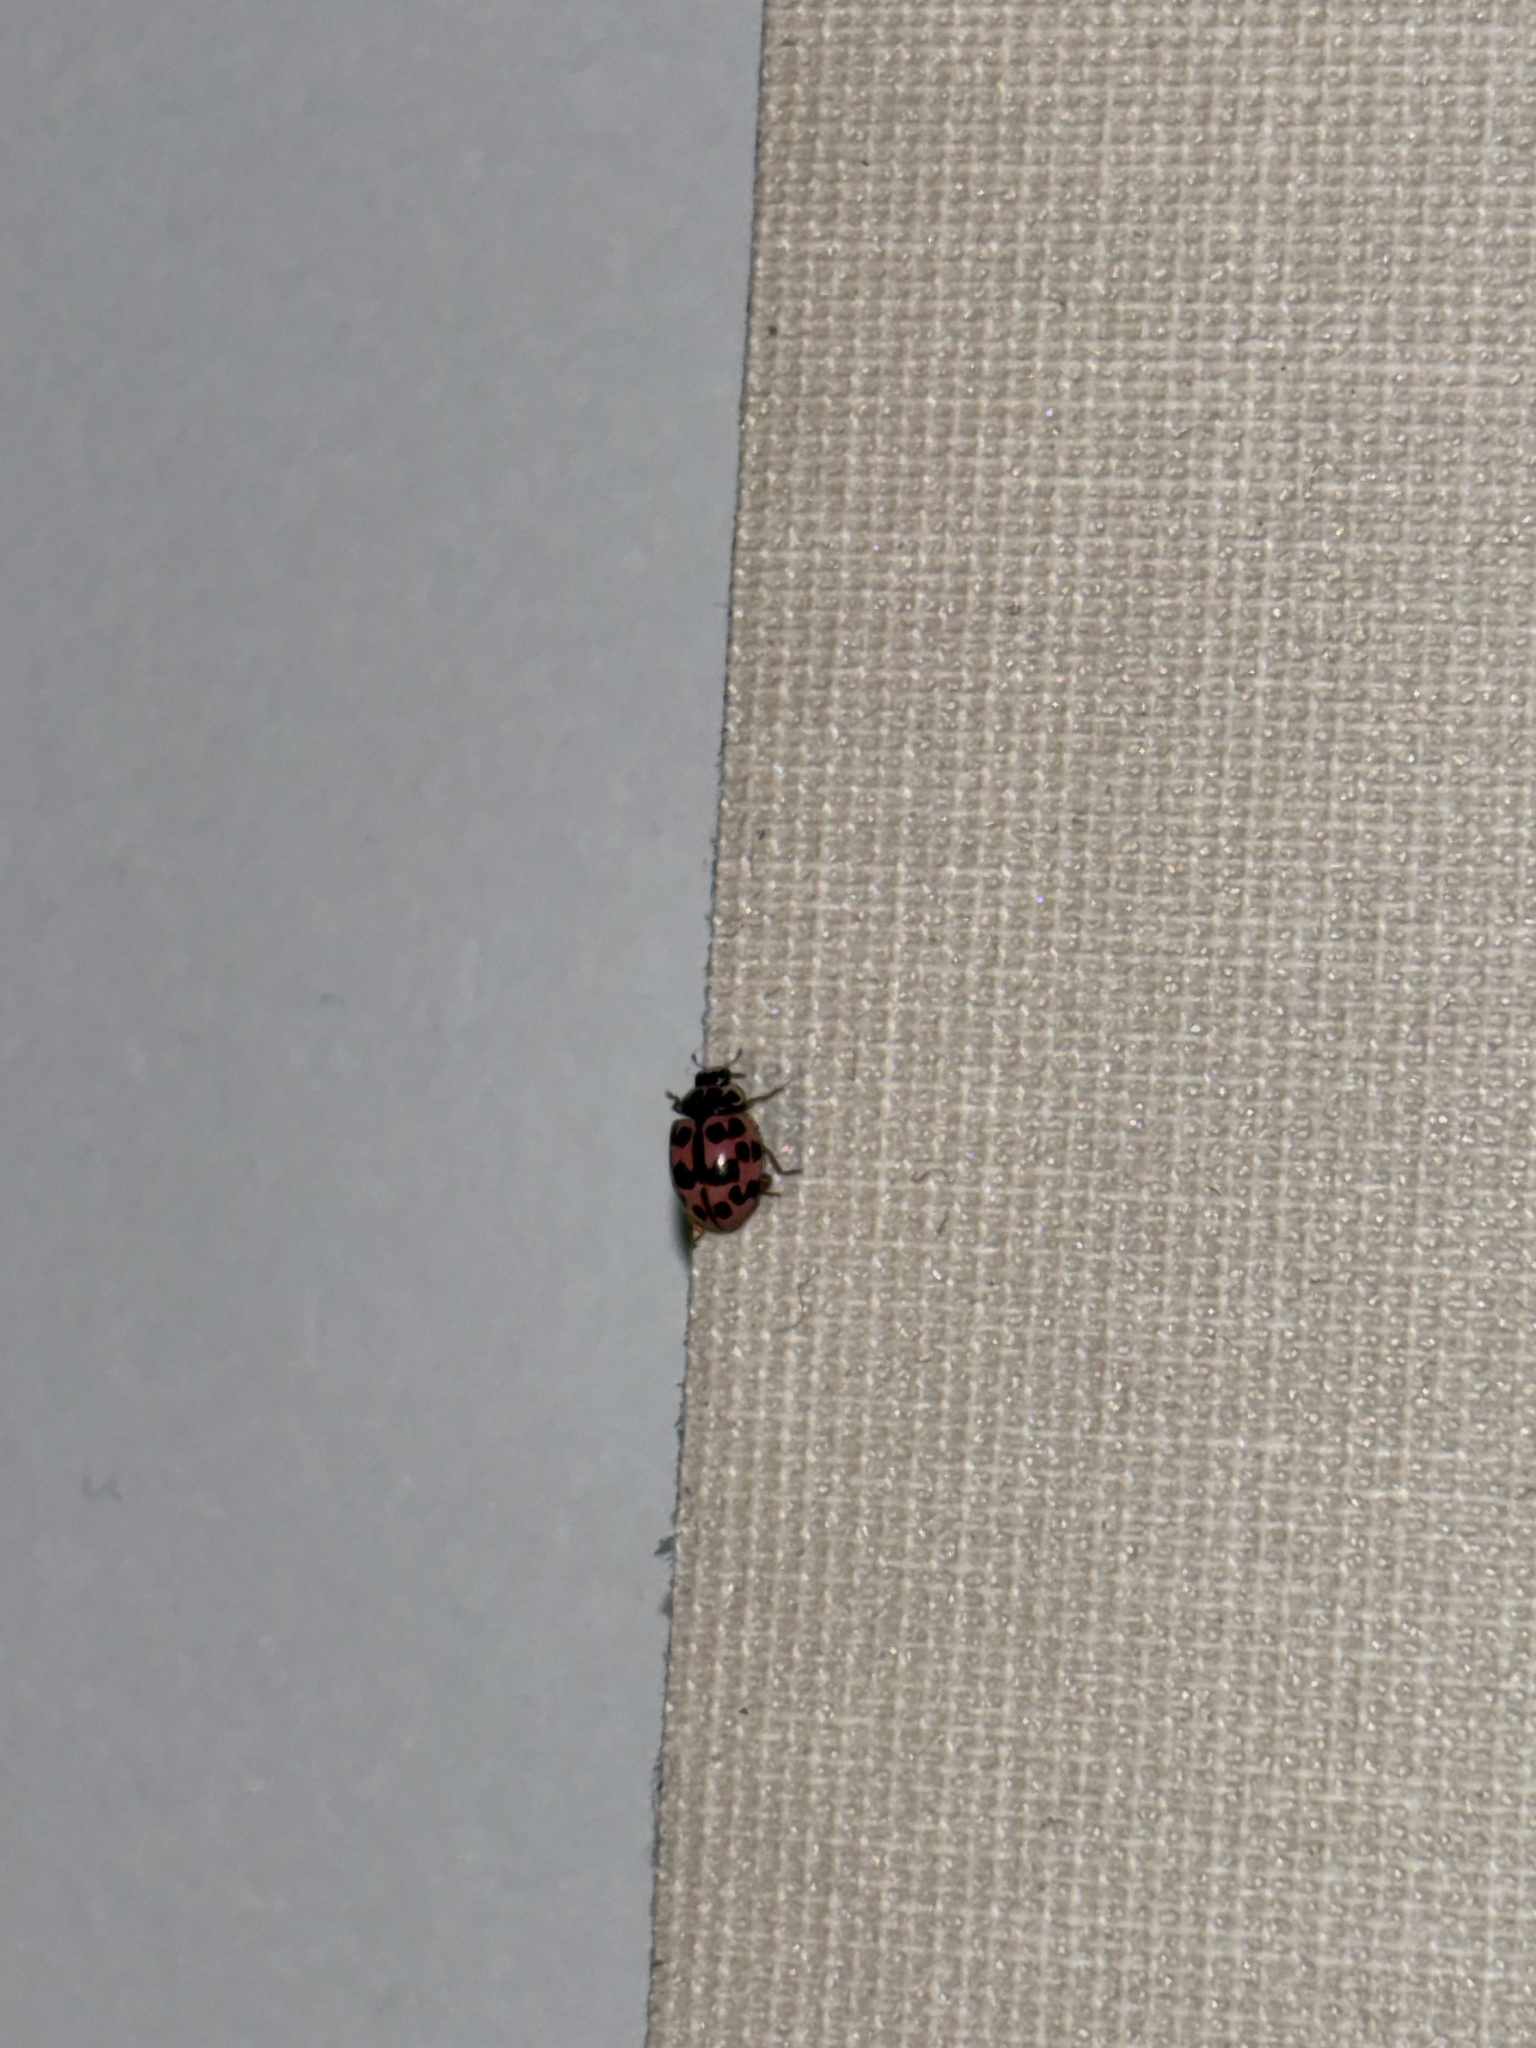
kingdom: Animalia
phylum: Arthropoda
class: Insecta
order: Coleoptera
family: Coccinellidae
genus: Oenopia
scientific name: Oenopia conglobata
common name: Ladybird beetle
